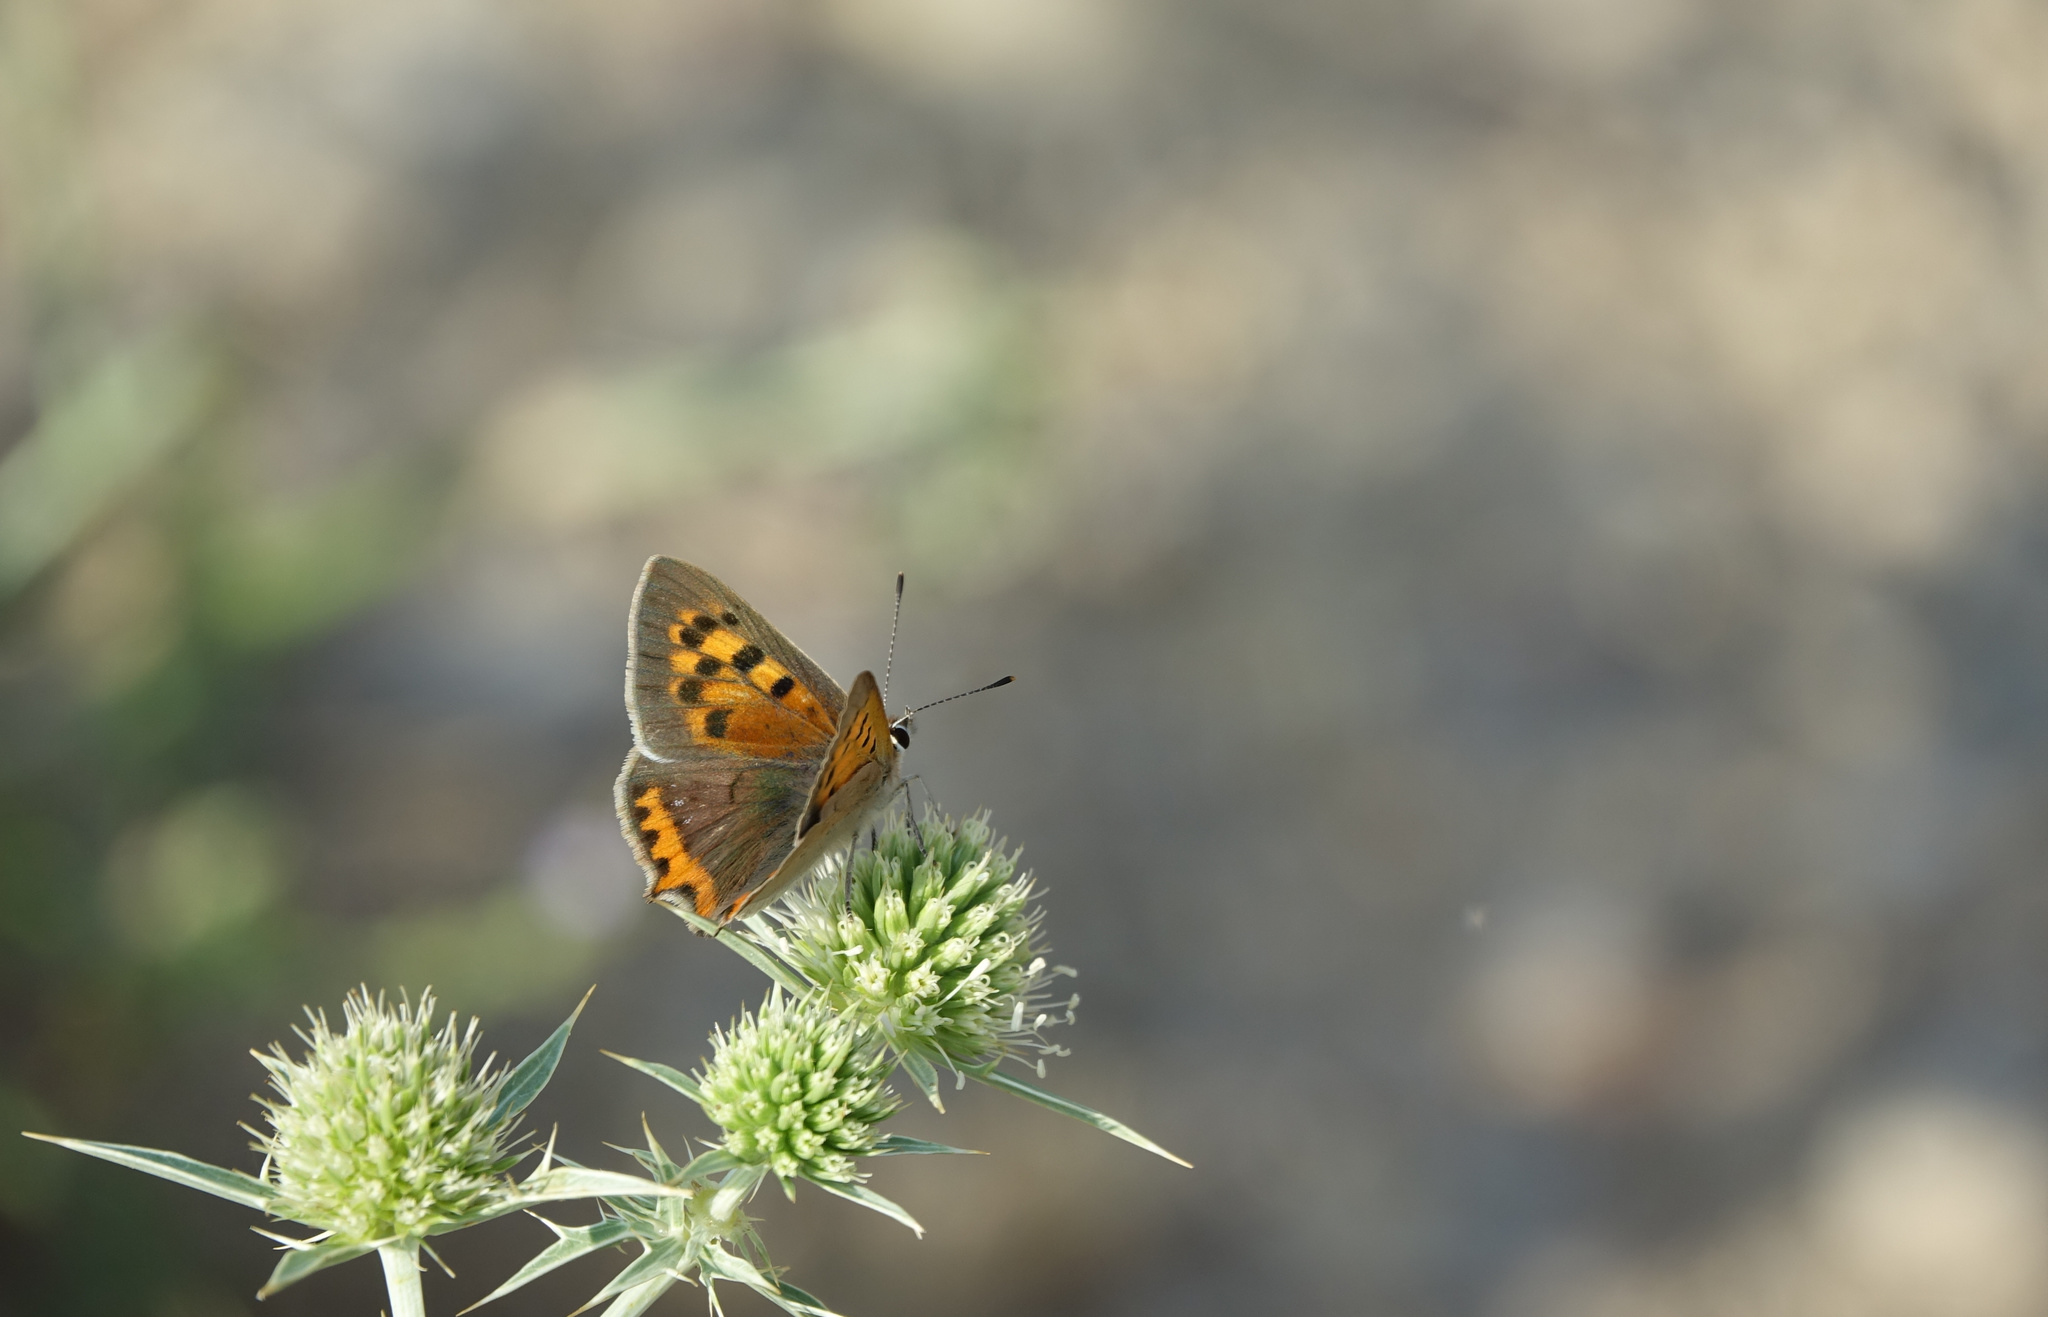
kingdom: Animalia
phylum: Arthropoda
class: Insecta
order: Lepidoptera
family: Lycaenidae
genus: Lycaena
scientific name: Lycaena phlaeas
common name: Small copper
